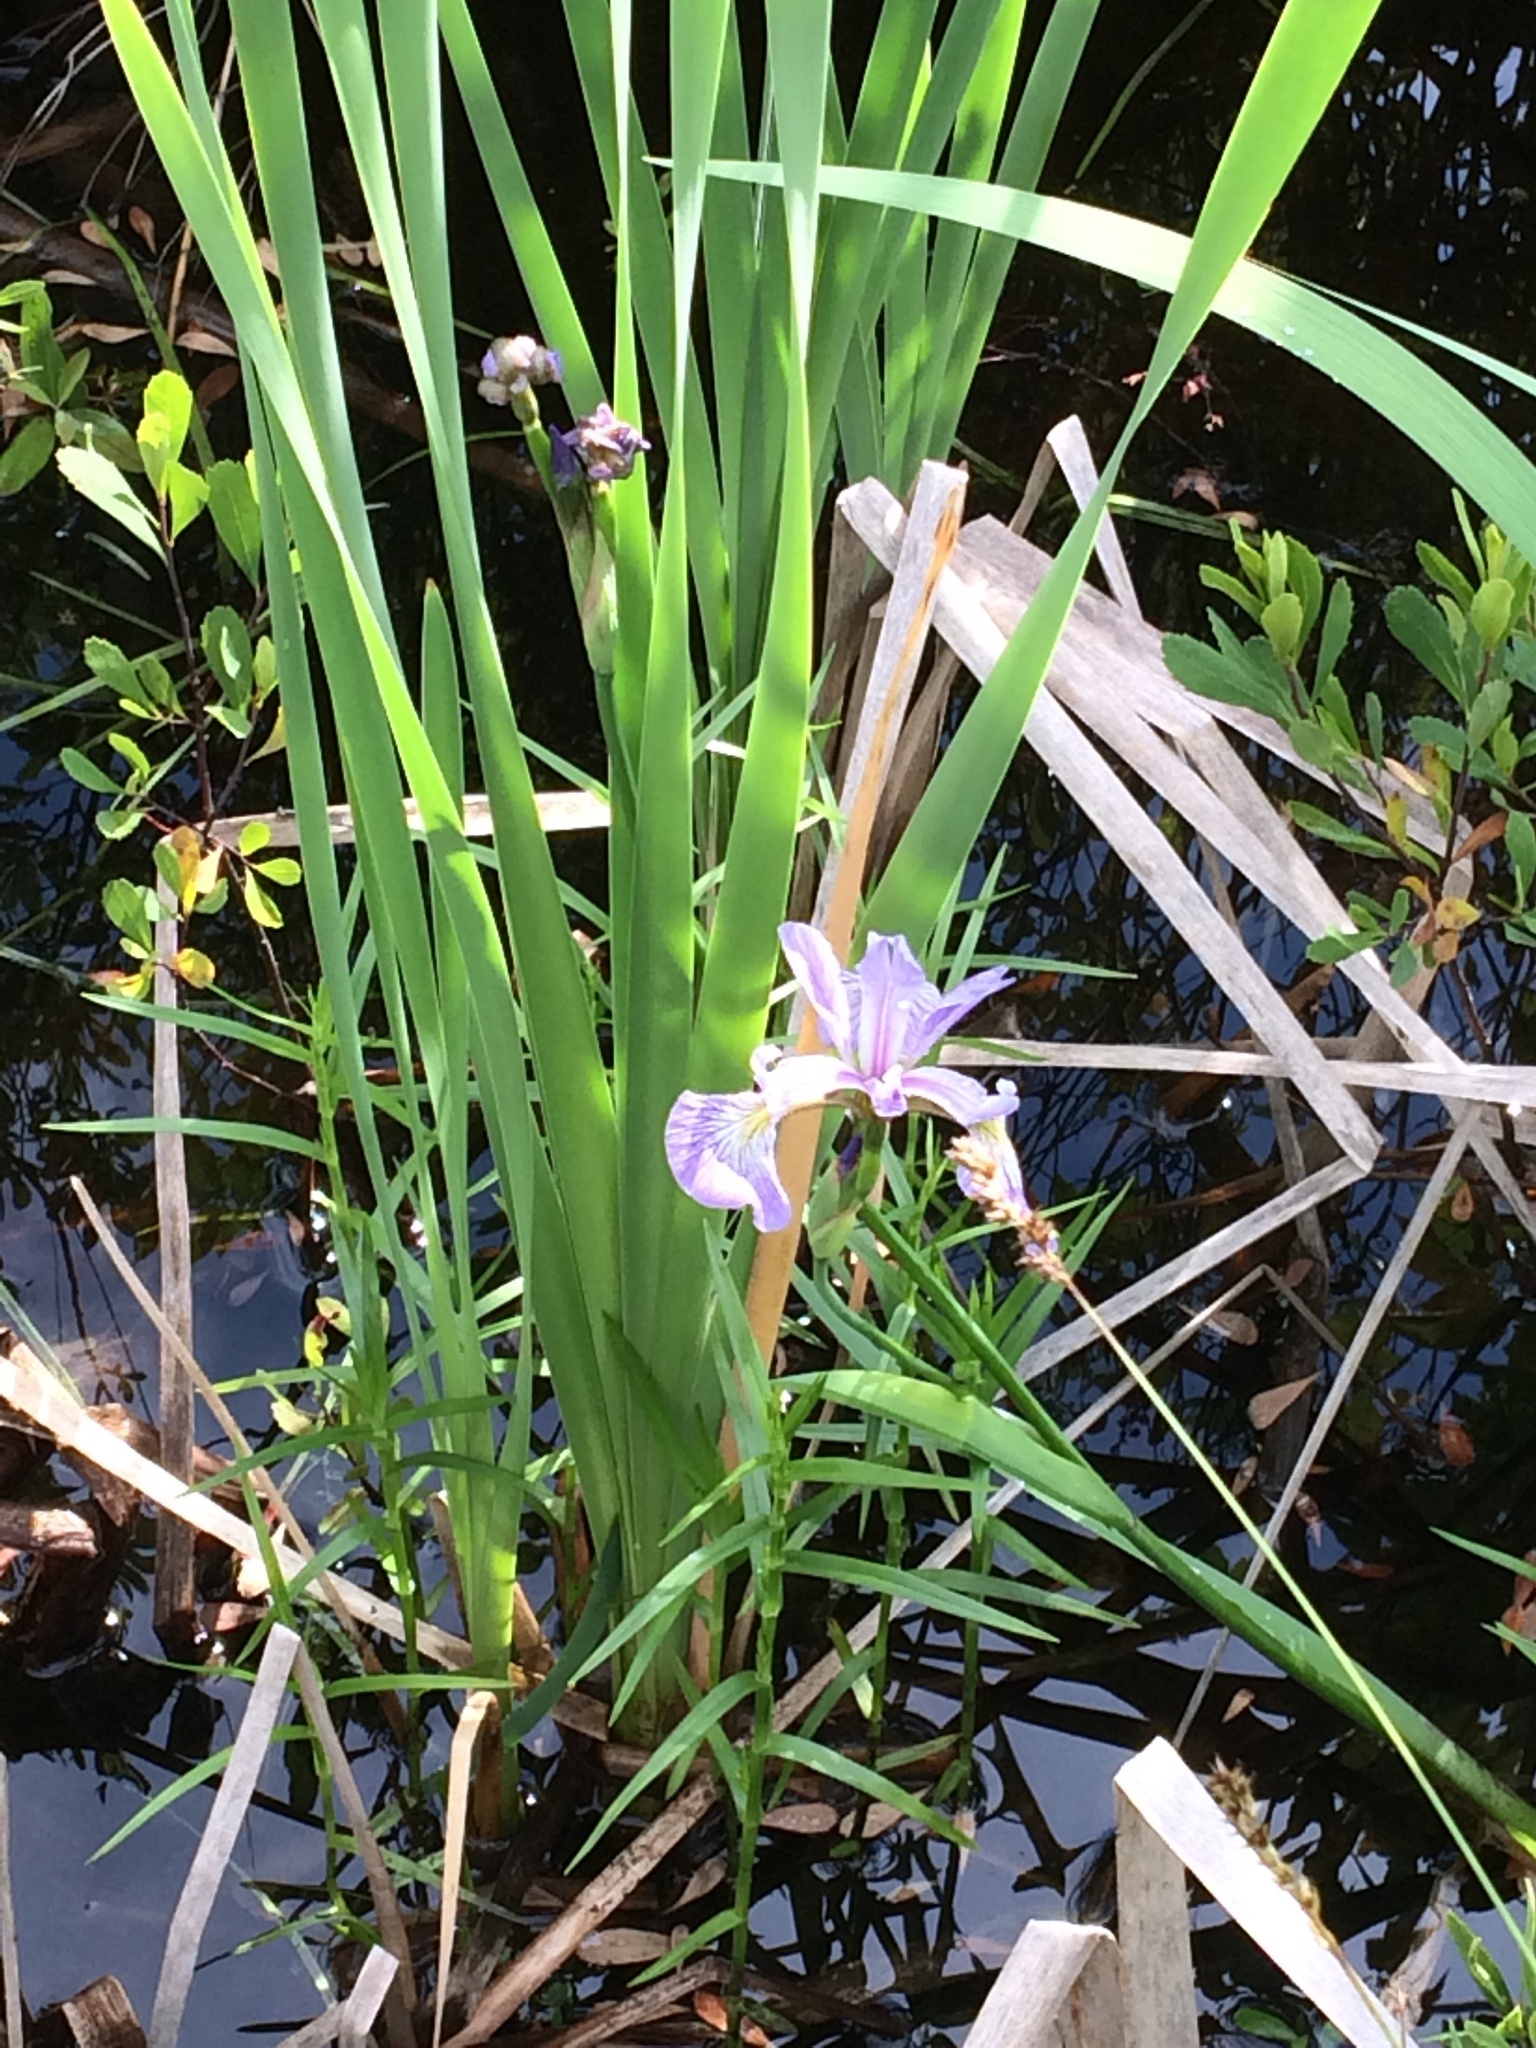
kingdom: Plantae
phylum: Tracheophyta
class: Liliopsida
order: Asparagales
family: Iridaceae
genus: Iris
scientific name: Iris versicolor
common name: Purple iris
